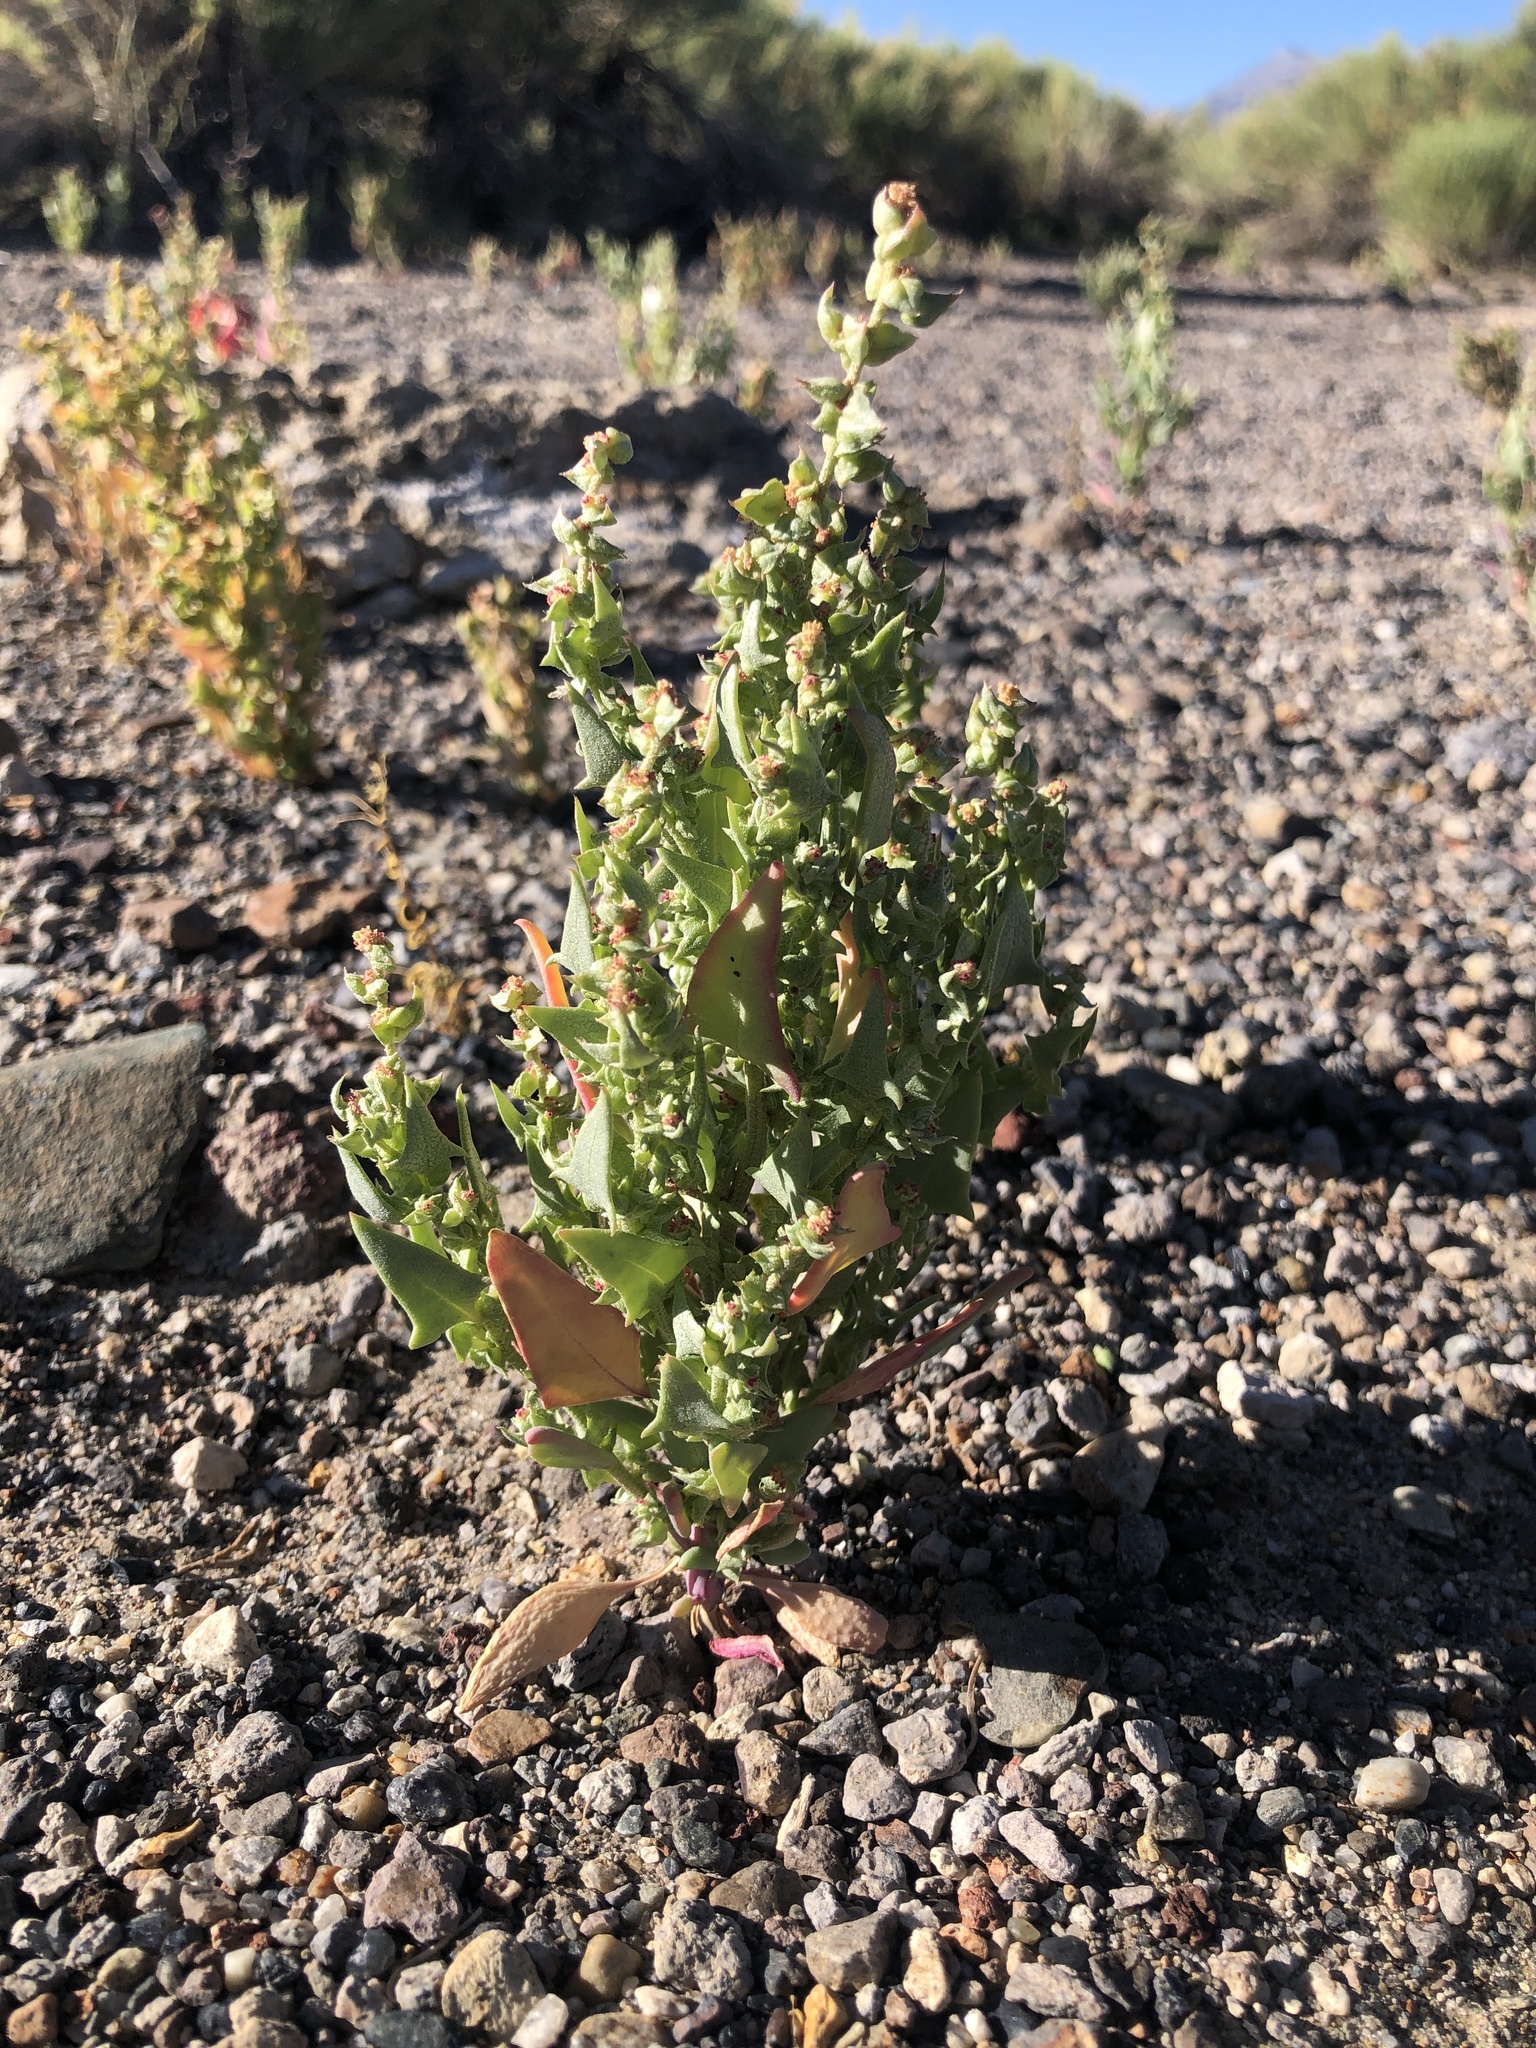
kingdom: Plantae
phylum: Tracheophyta
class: Magnoliopsida
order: Caryophyllales
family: Amaranthaceae
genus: Stutzia
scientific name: Stutzia covillei
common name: Coville's orach
